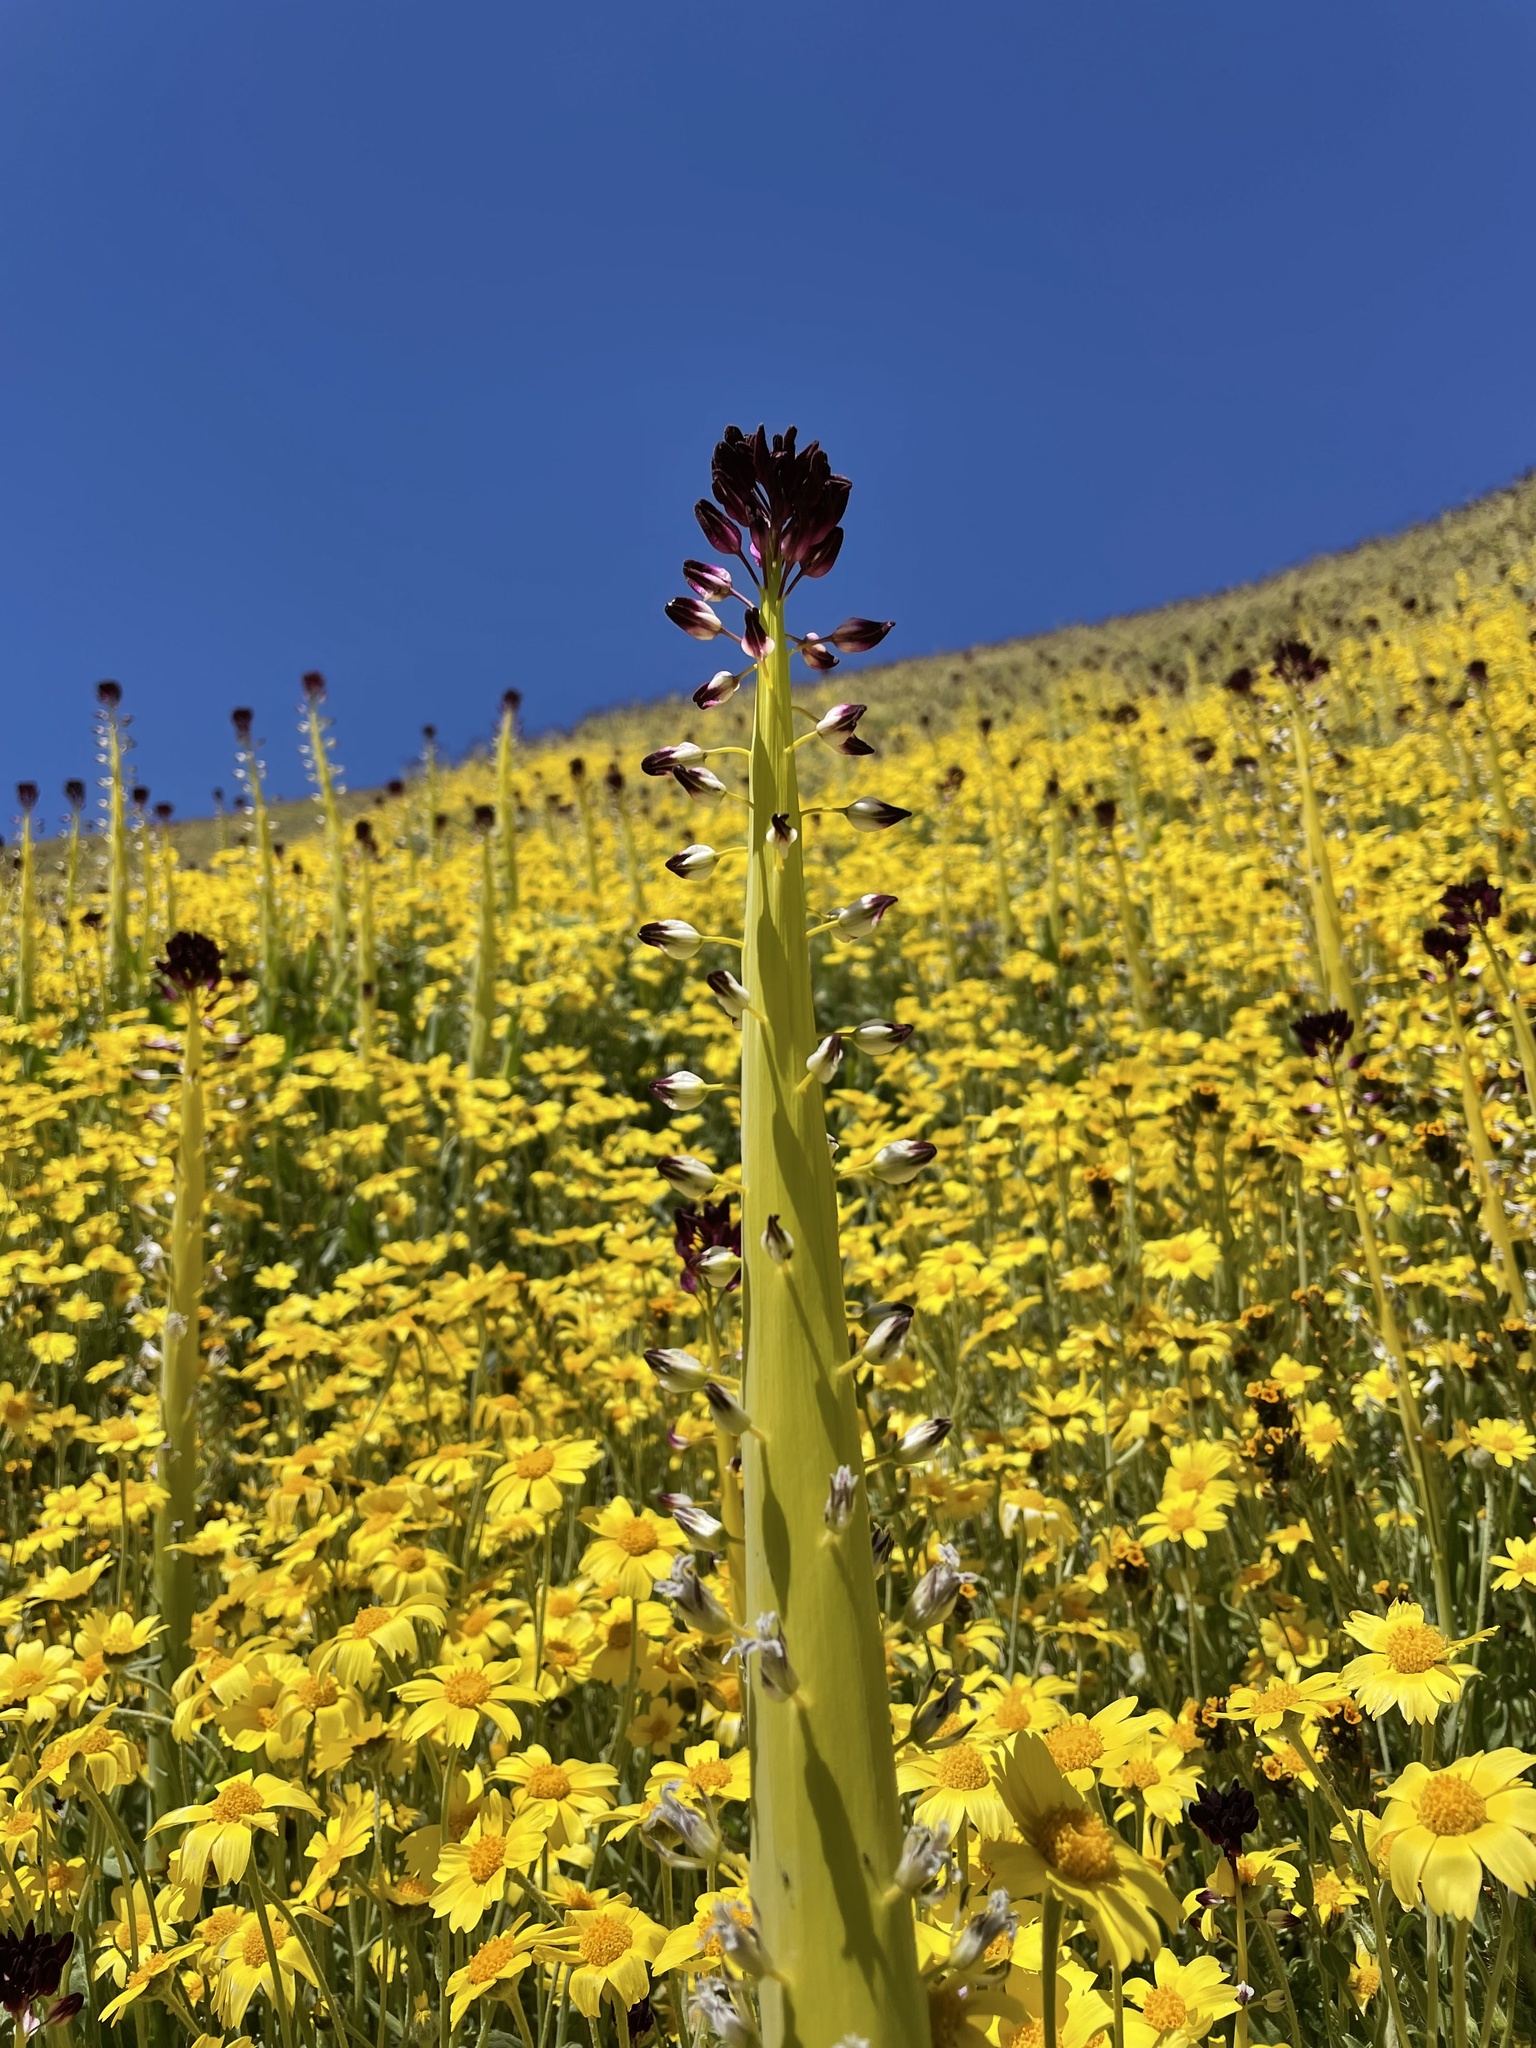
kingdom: Plantae
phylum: Tracheophyta
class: Magnoliopsida
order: Brassicales
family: Brassicaceae
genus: Streptanthus
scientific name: Streptanthus inflatus
